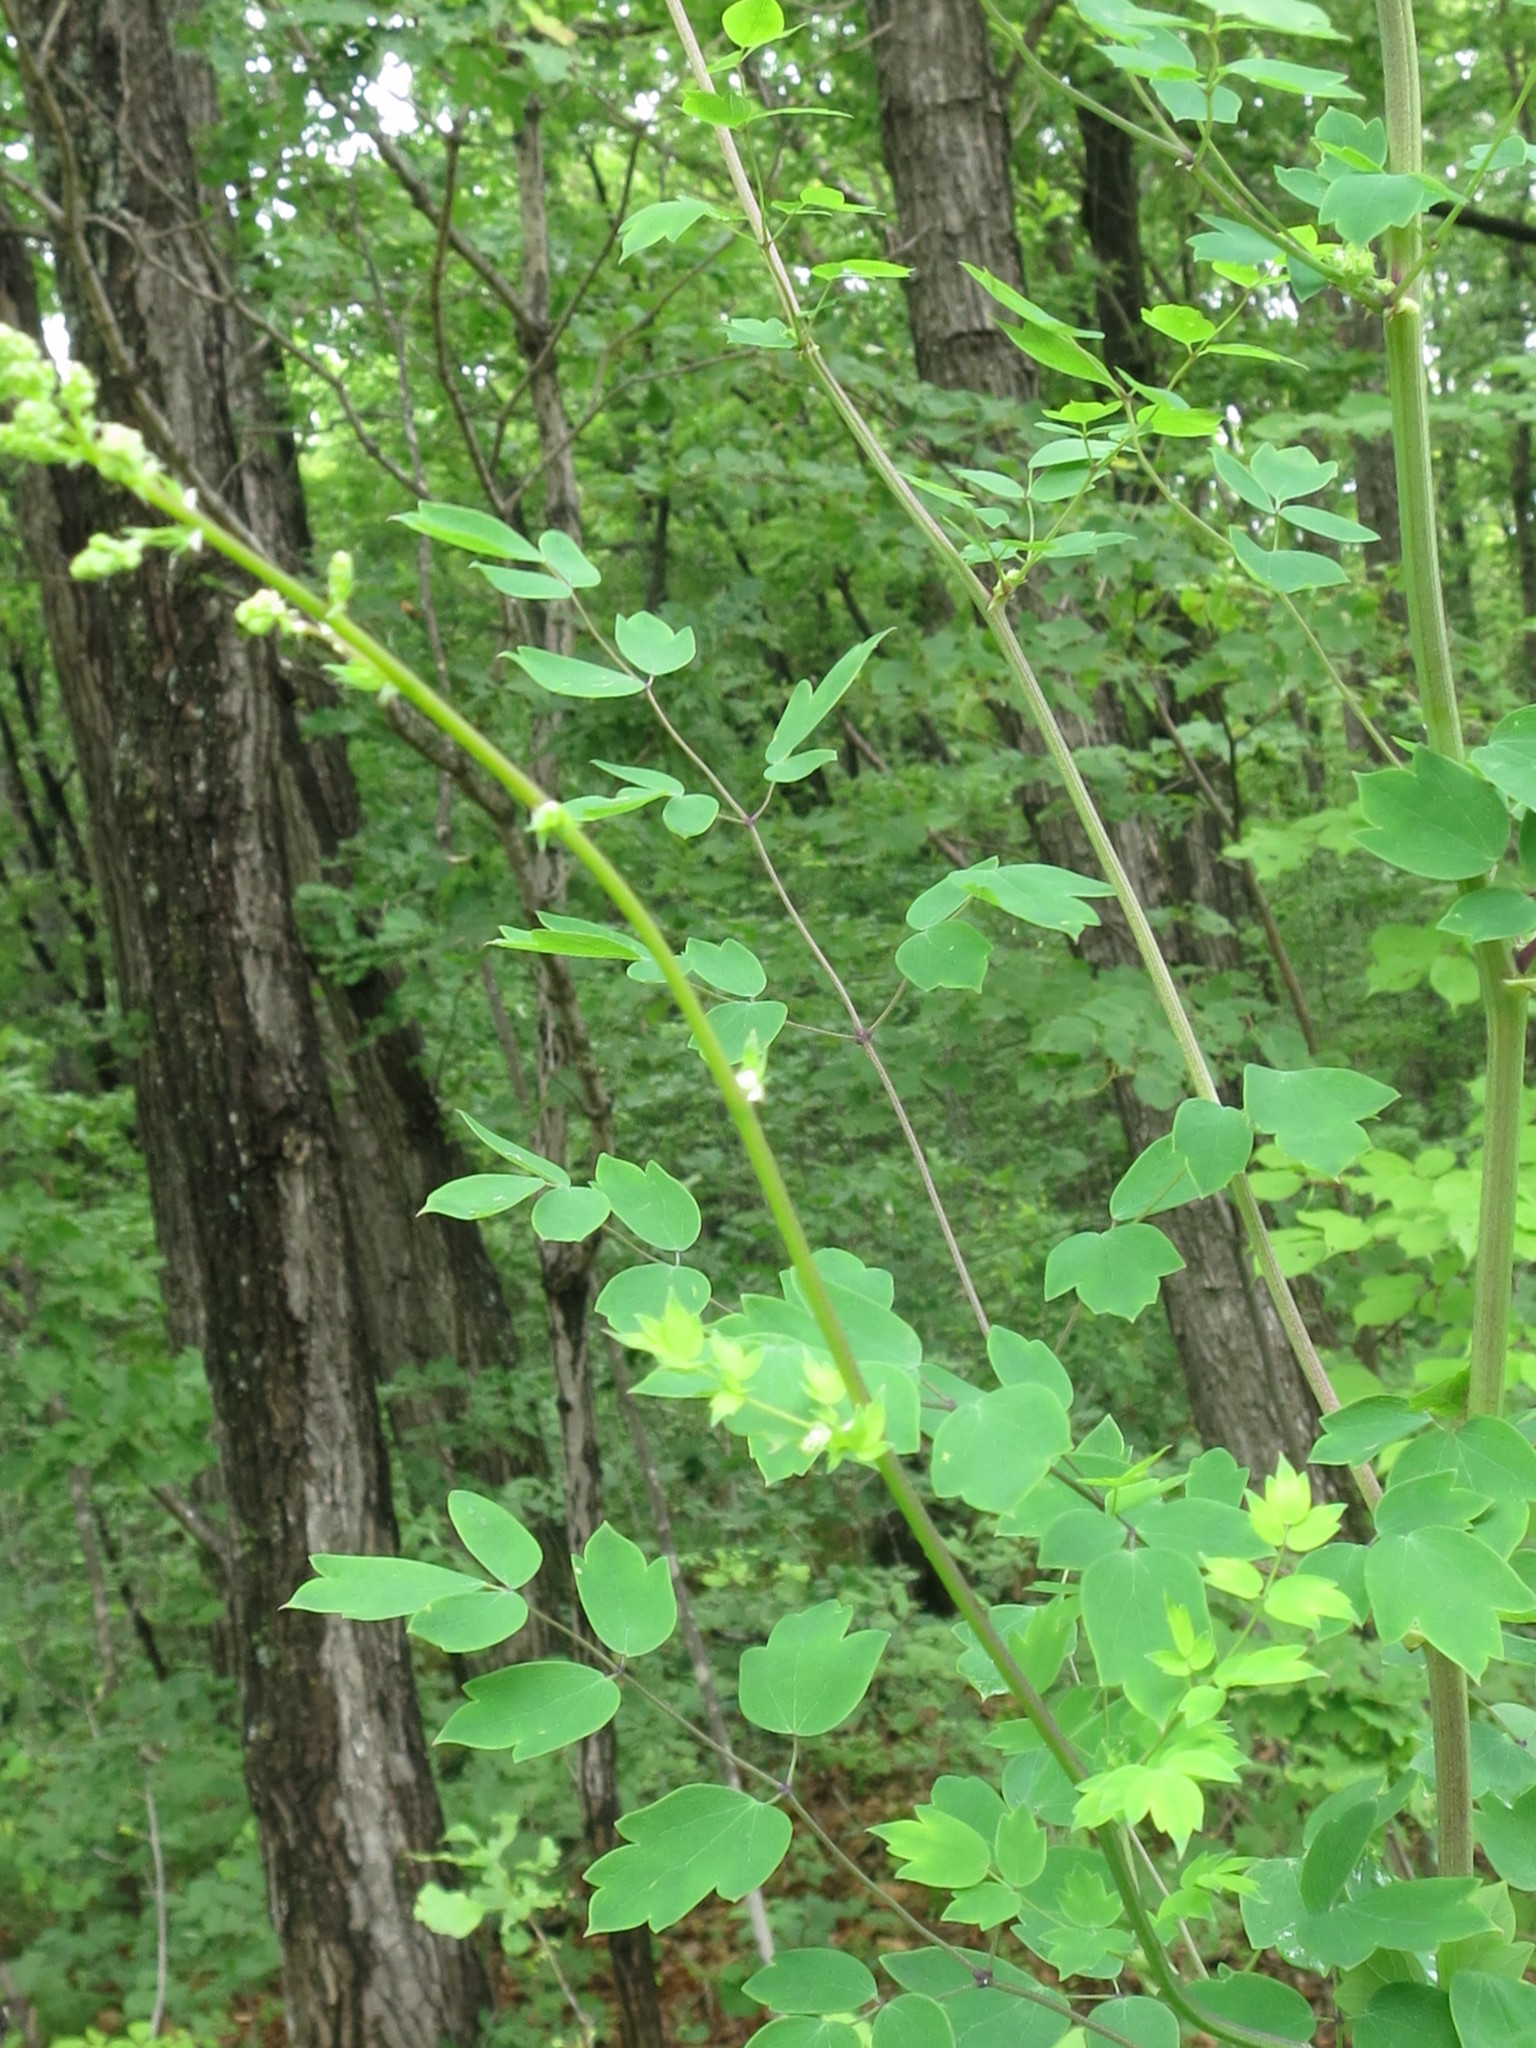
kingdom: Plantae
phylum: Tracheophyta
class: Magnoliopsida
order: Ranunculales
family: Ranunculaceae
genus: Thalictrum
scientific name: Thalictrum minus
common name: Lesser meadow-rue
